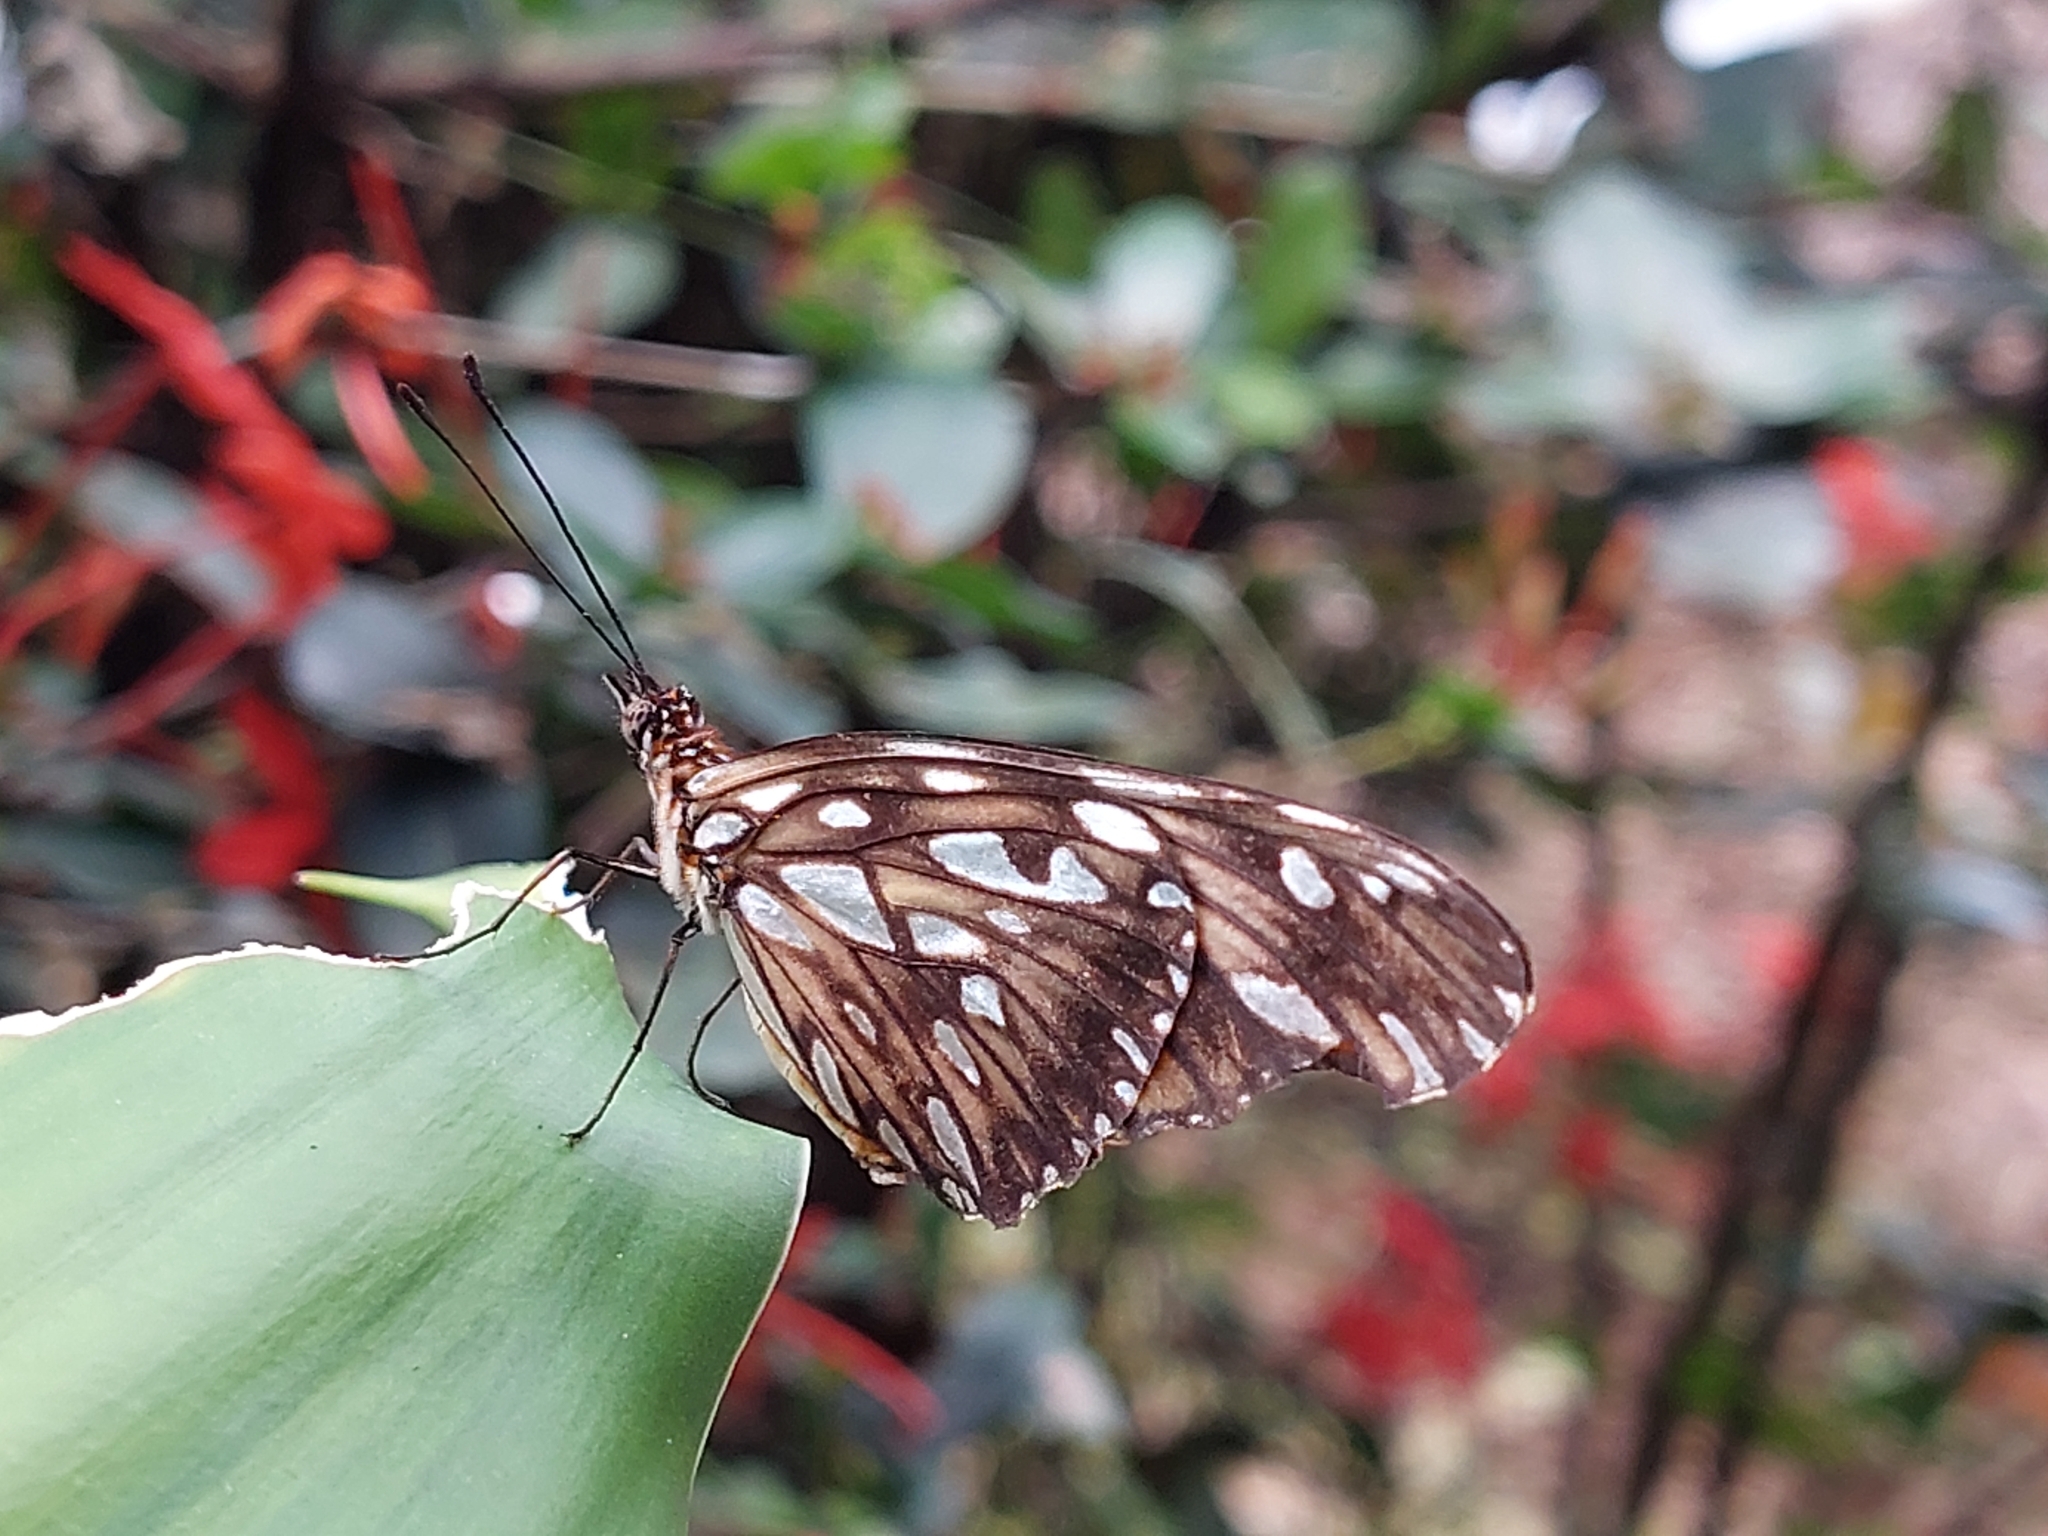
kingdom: Animalia
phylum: Arthropoda
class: Insecta
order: Lepidoptera
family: Nymphalidae
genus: Dione
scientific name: Dione juno
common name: Juno silverspot
